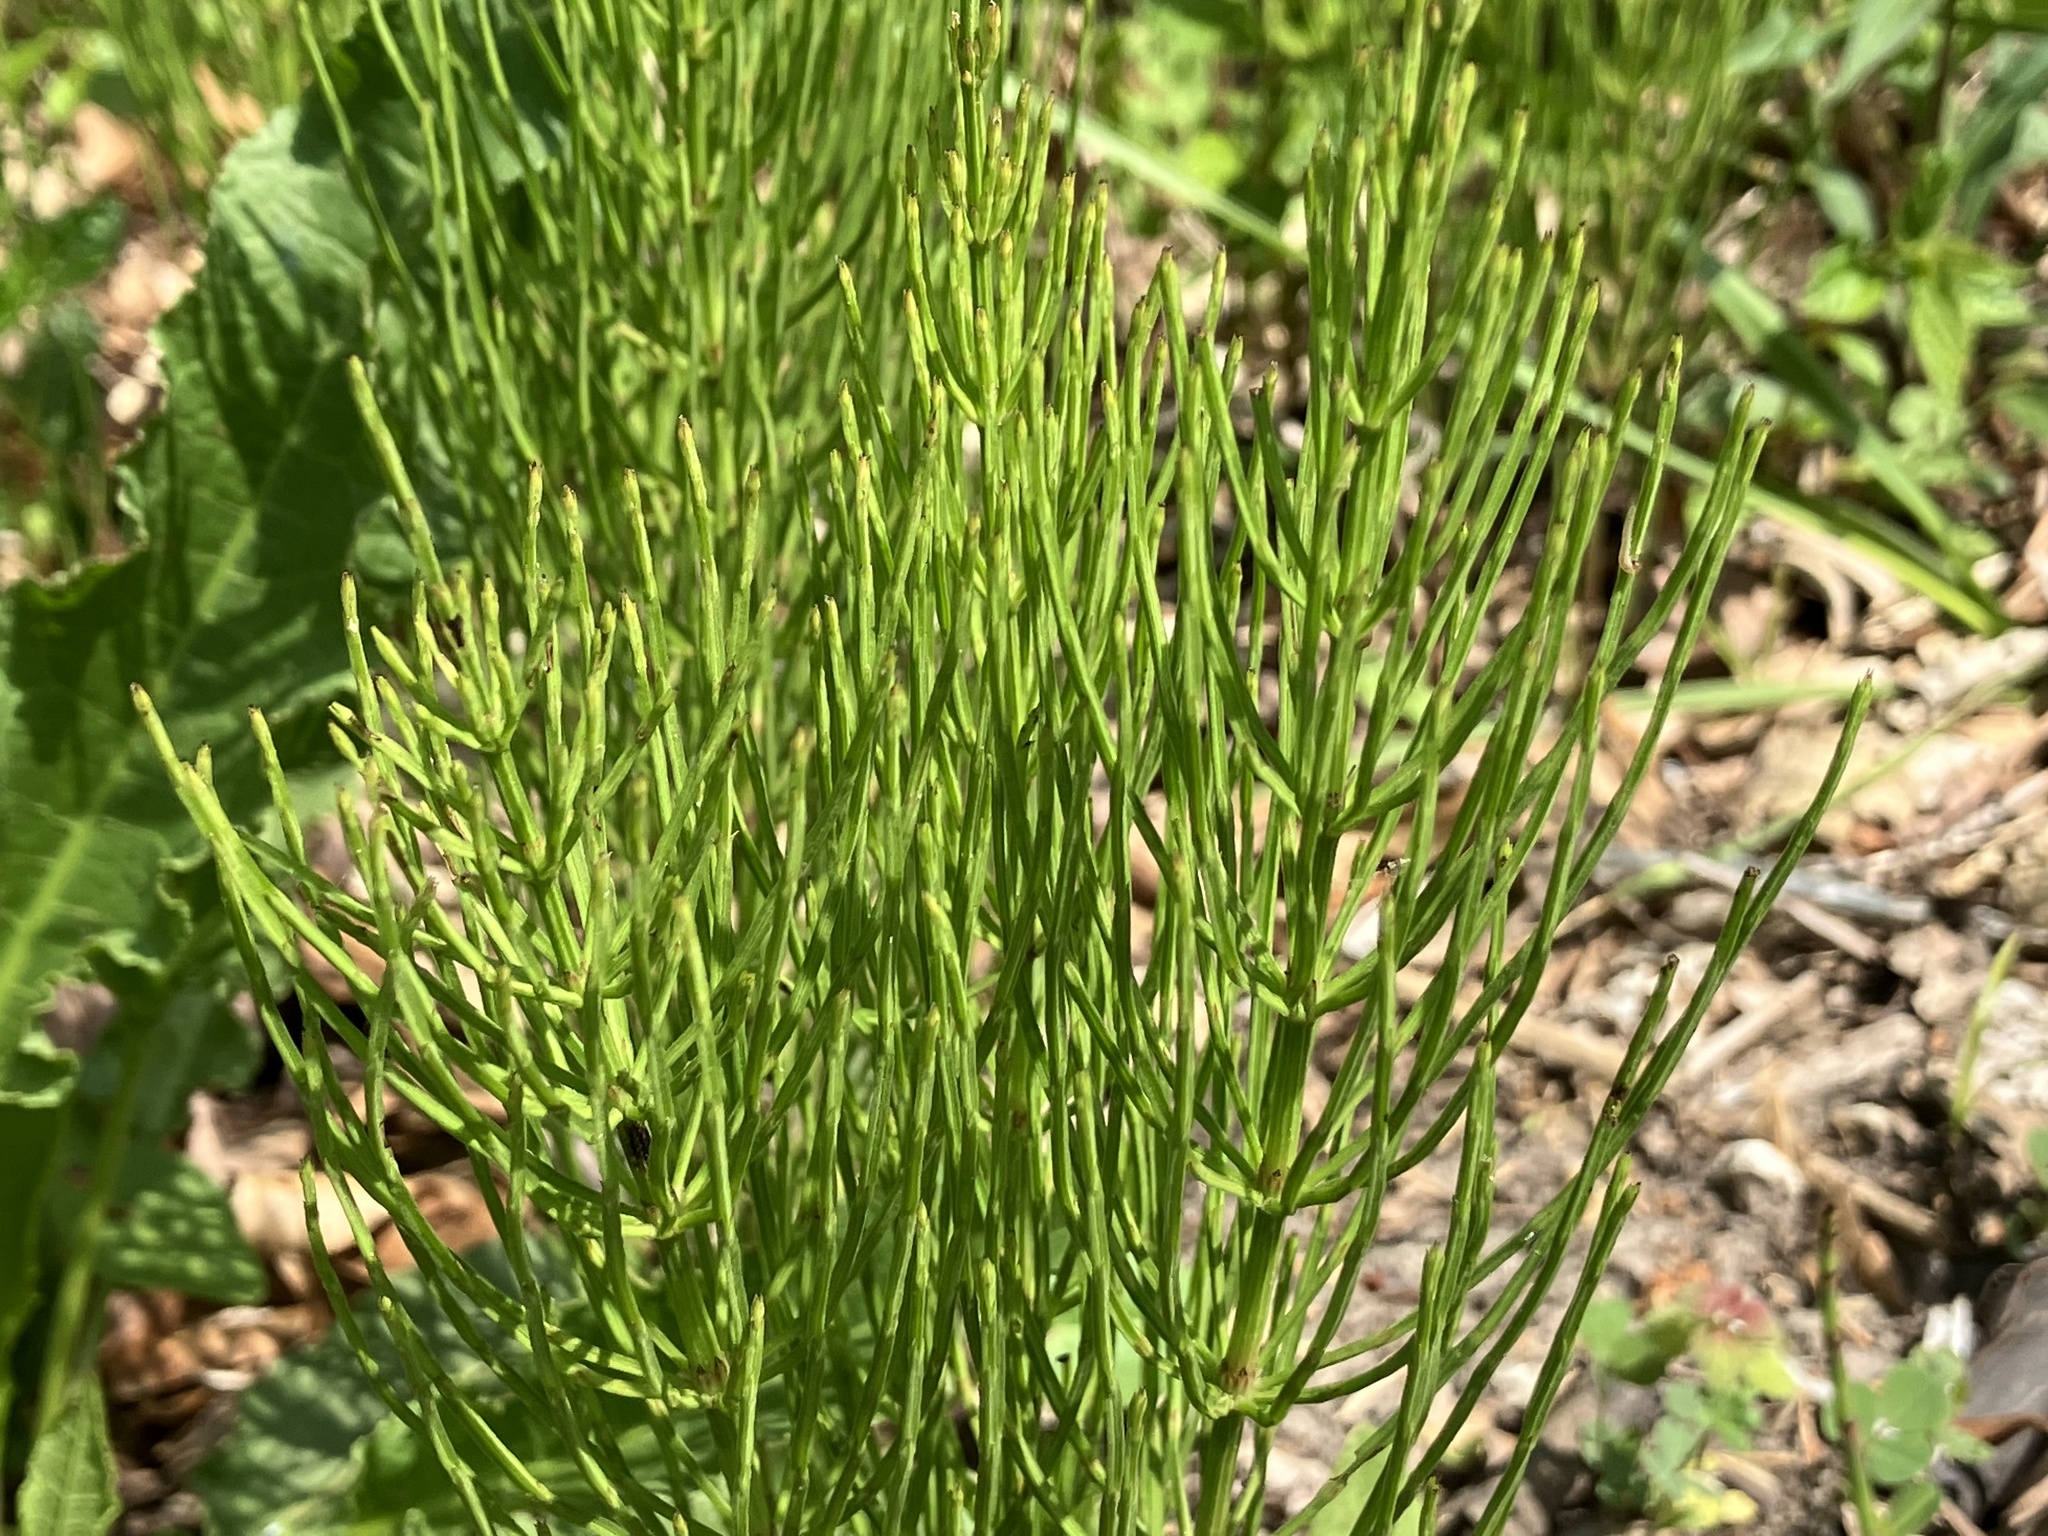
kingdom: Plantae
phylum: Tracheophyta
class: Polypodiopsida
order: Equisetales
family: Equisetaceae
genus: Equisetum
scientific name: Equisetum arvense
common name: Field horsetail
